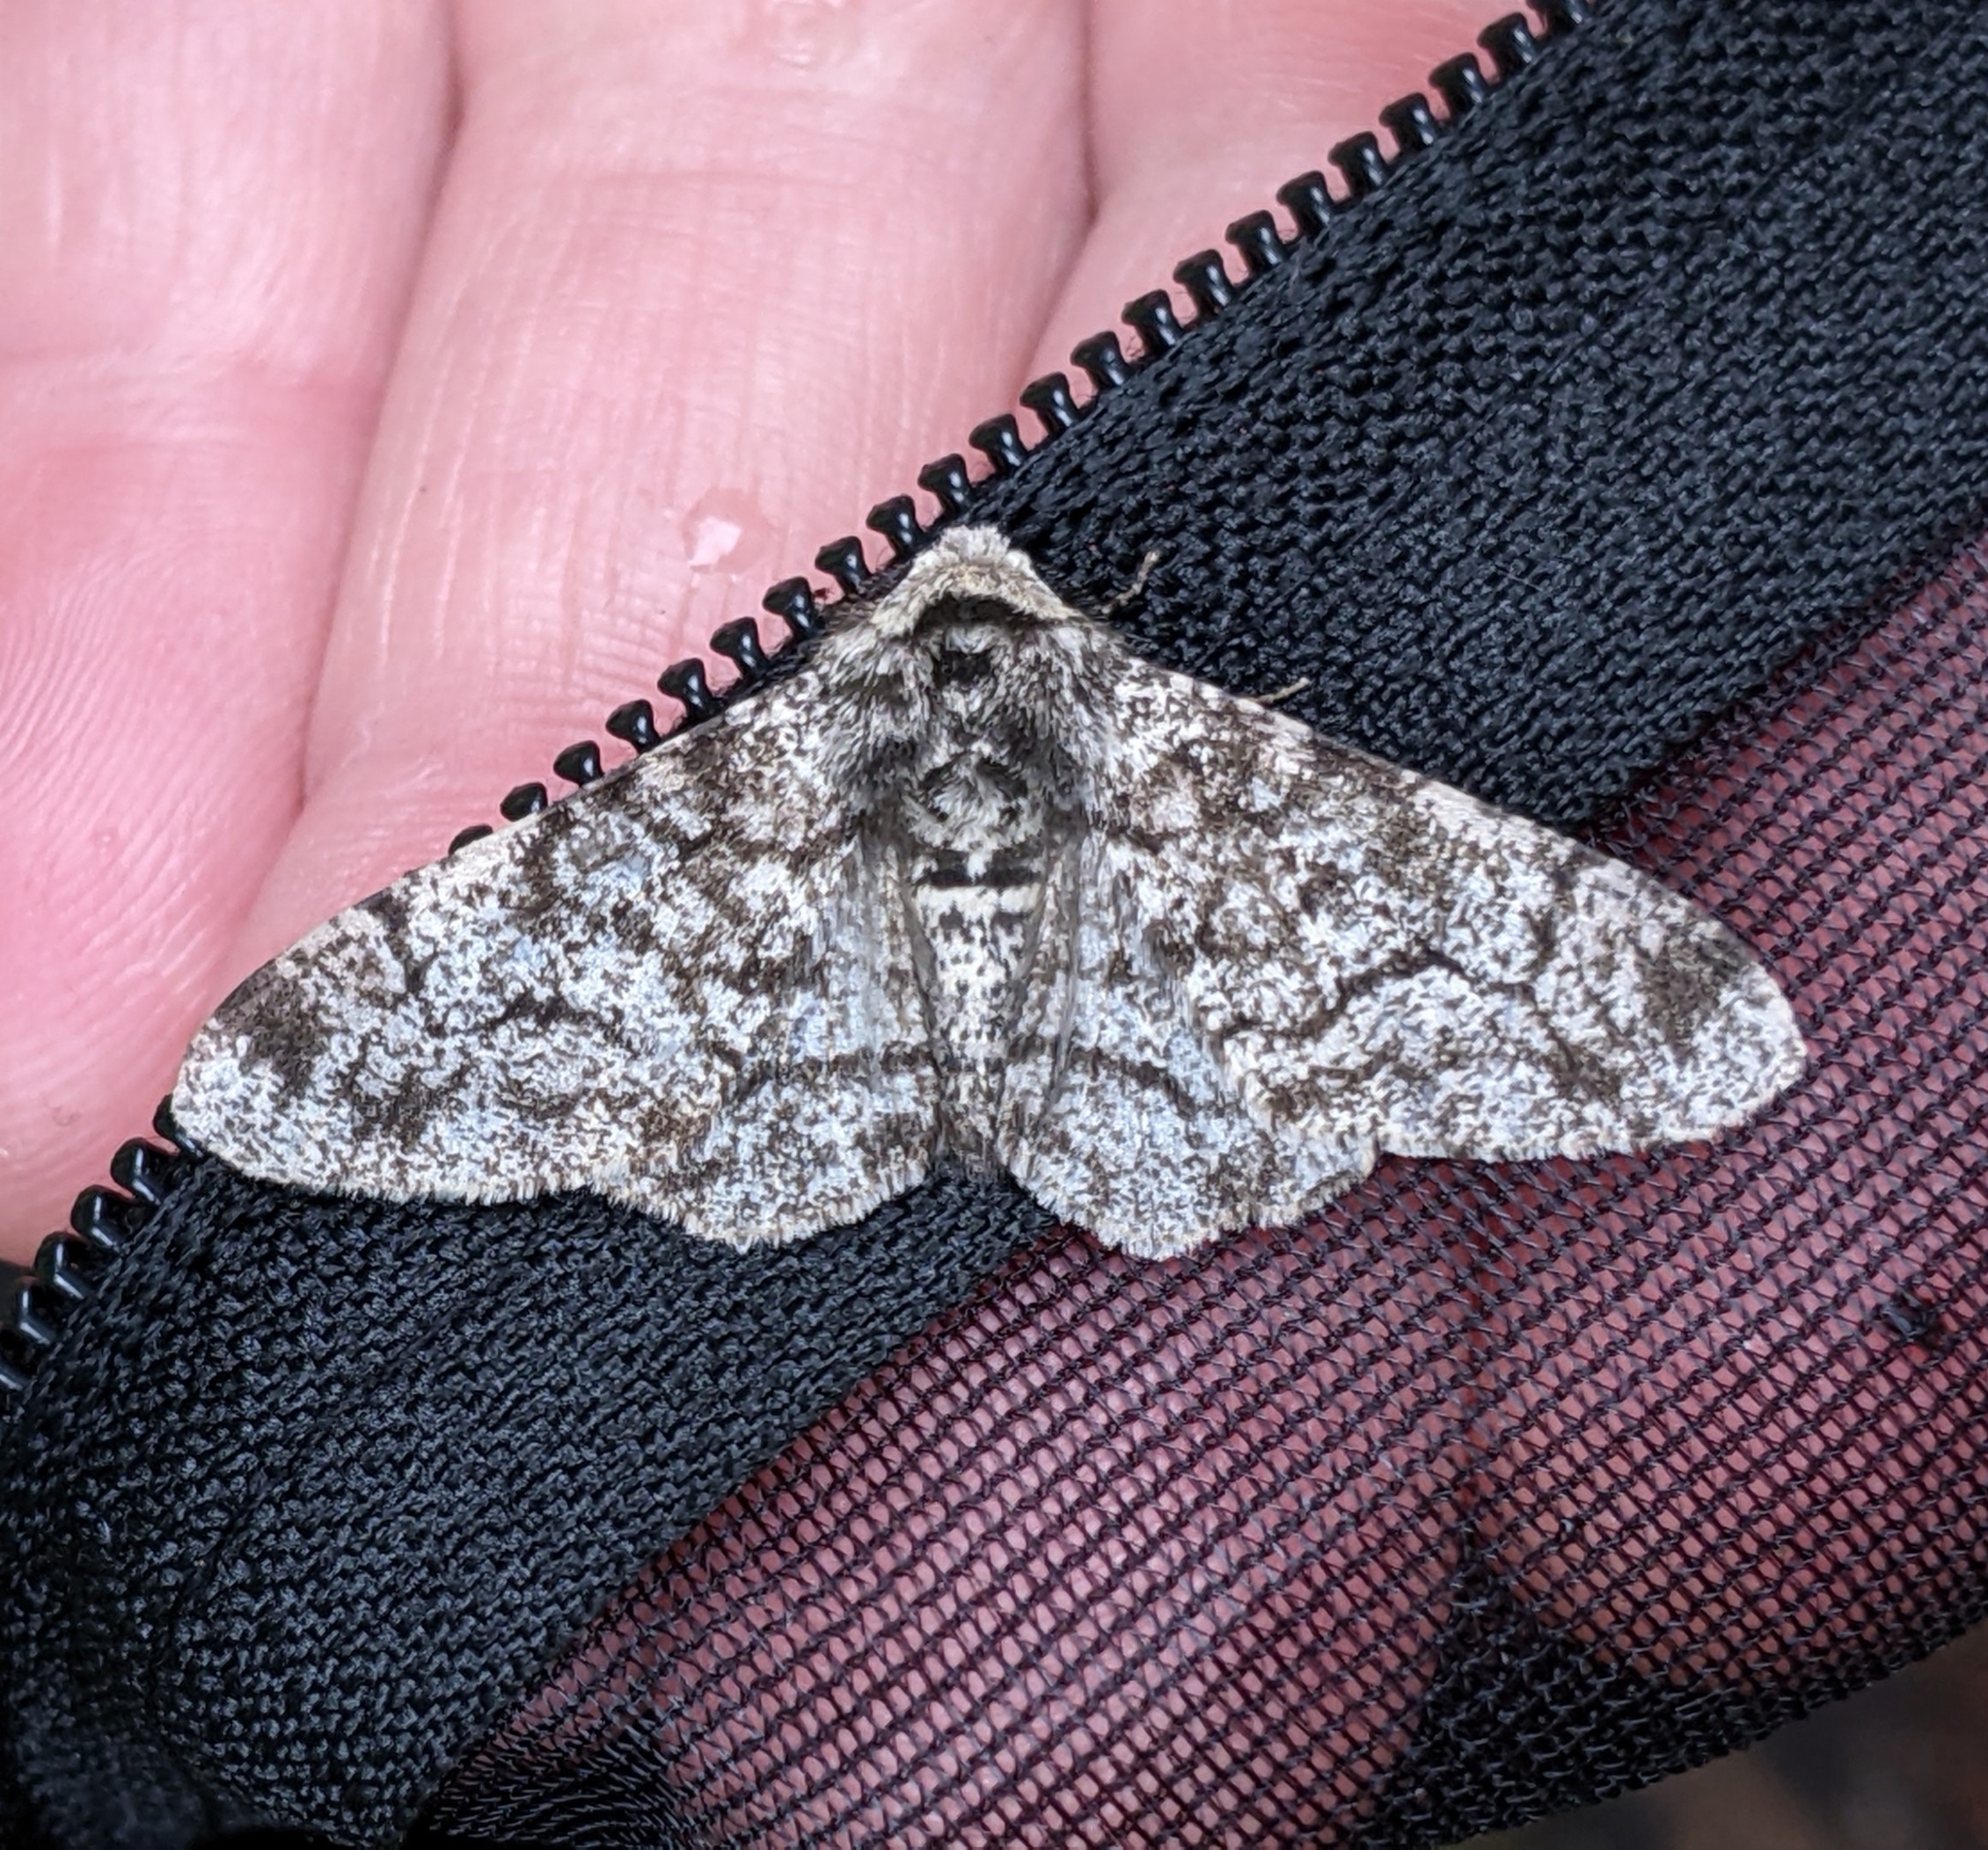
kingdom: Animalia
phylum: Arthropoda
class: Insecta
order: Lepidoptera
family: Geometridae
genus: Biston
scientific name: Biston betularia
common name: Peppered moth
